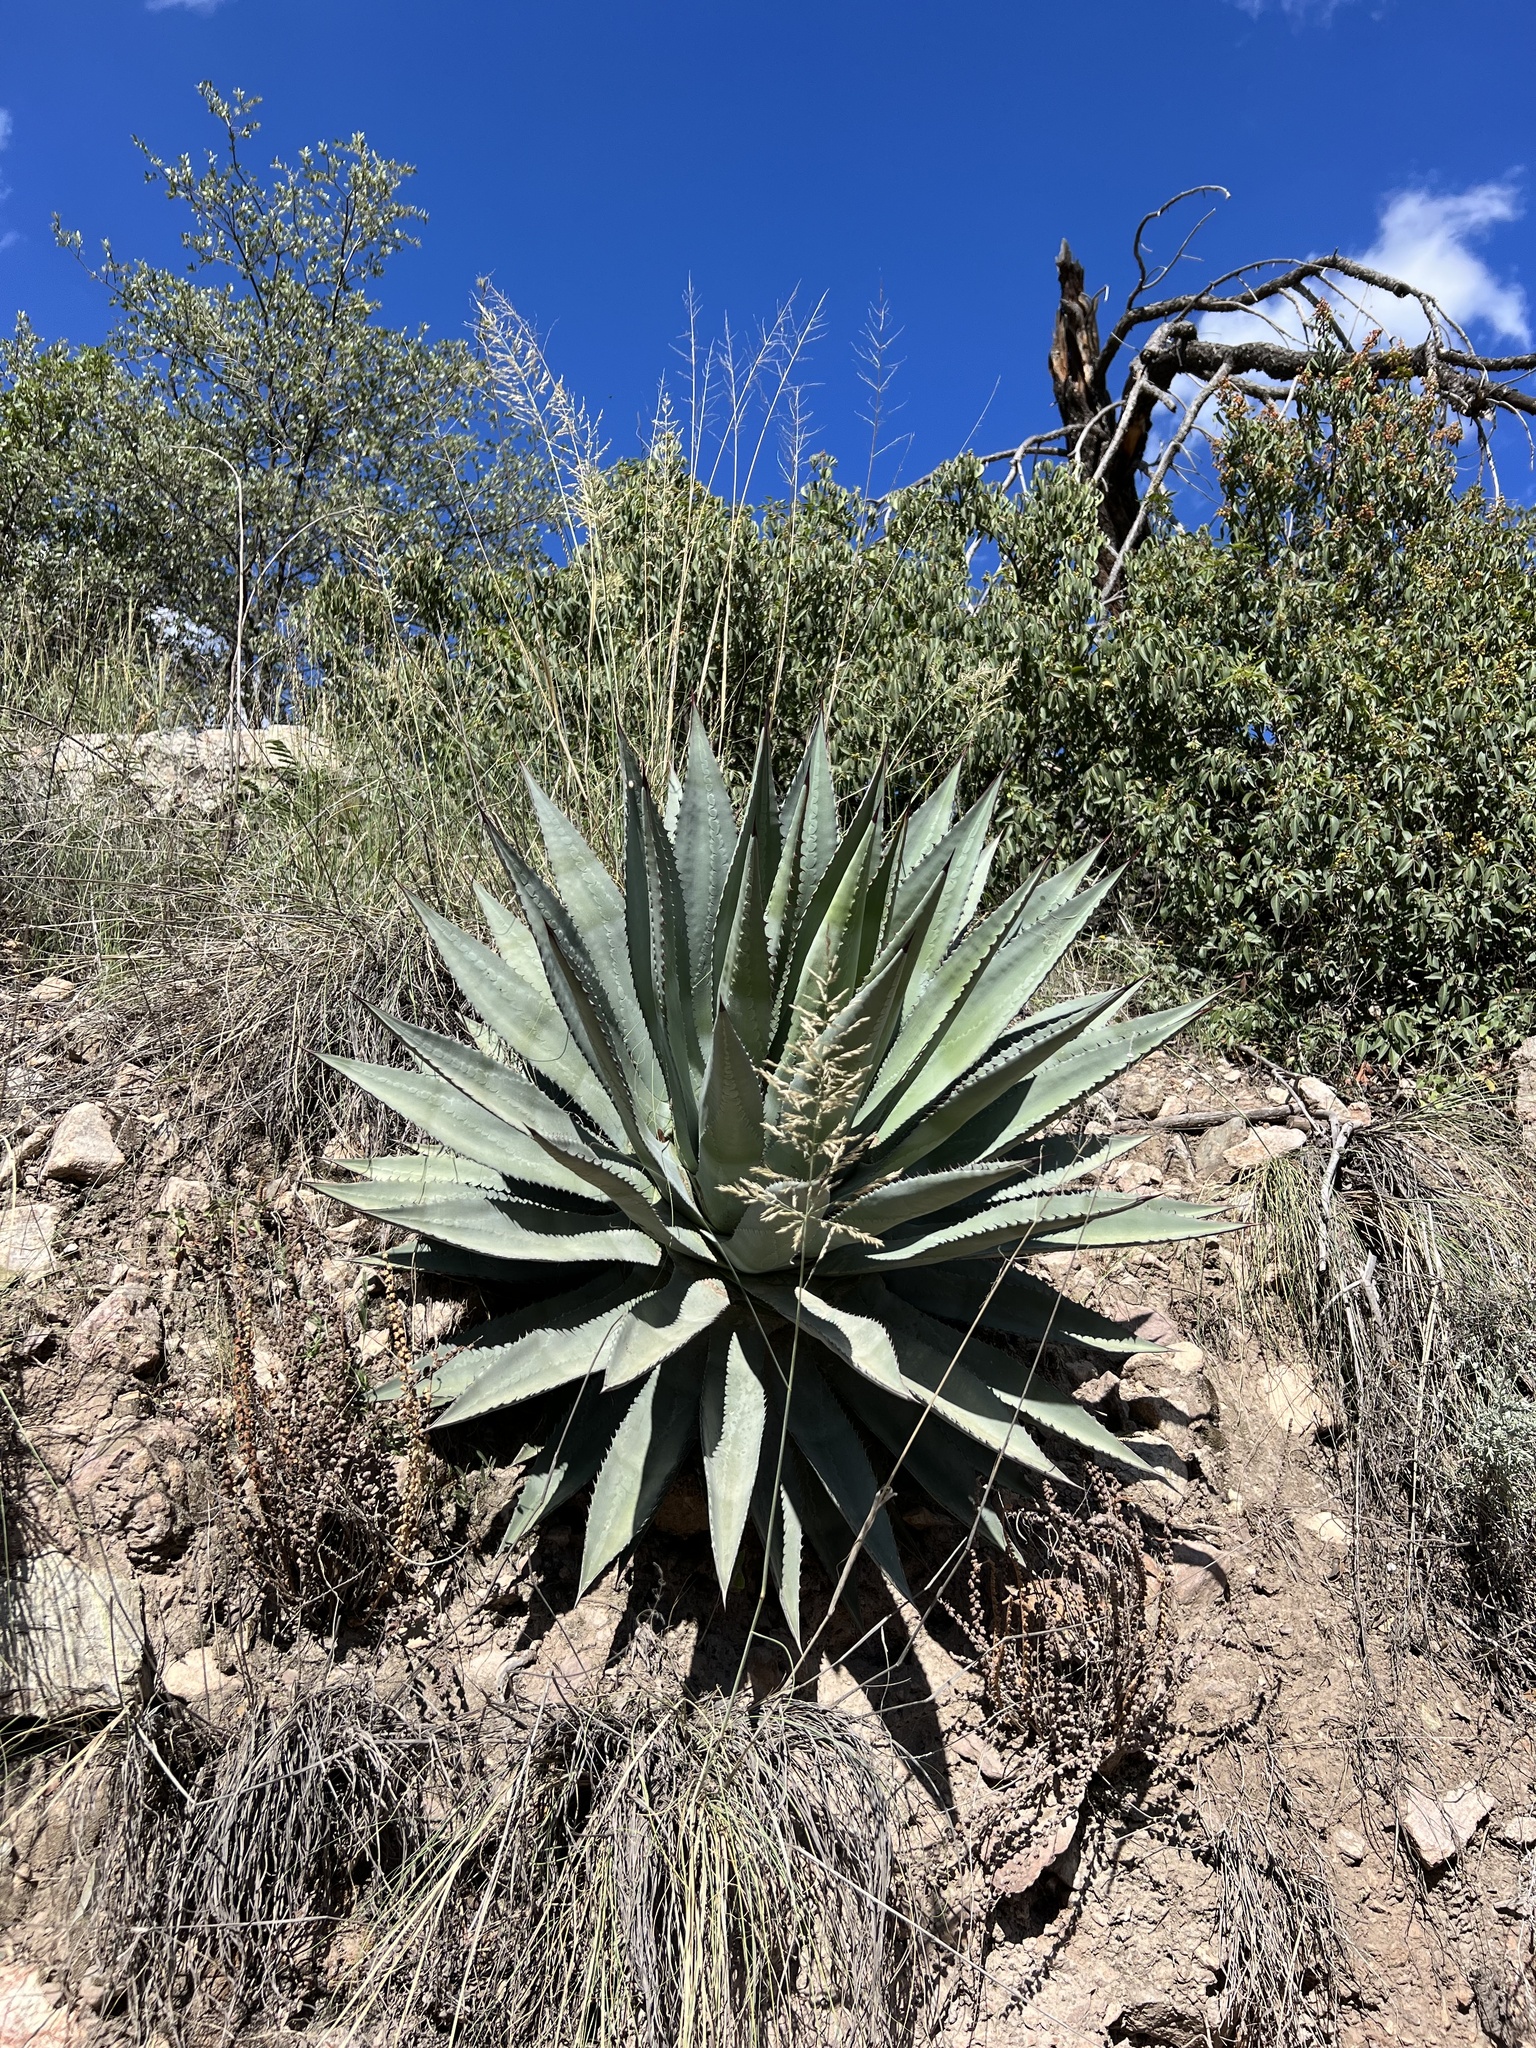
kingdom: Plantae
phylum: Tracheophyta
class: Liliopsida
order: Asparagales
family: Asparagaceae
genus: Agave
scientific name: Agave palmeri
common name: Palmer agave
